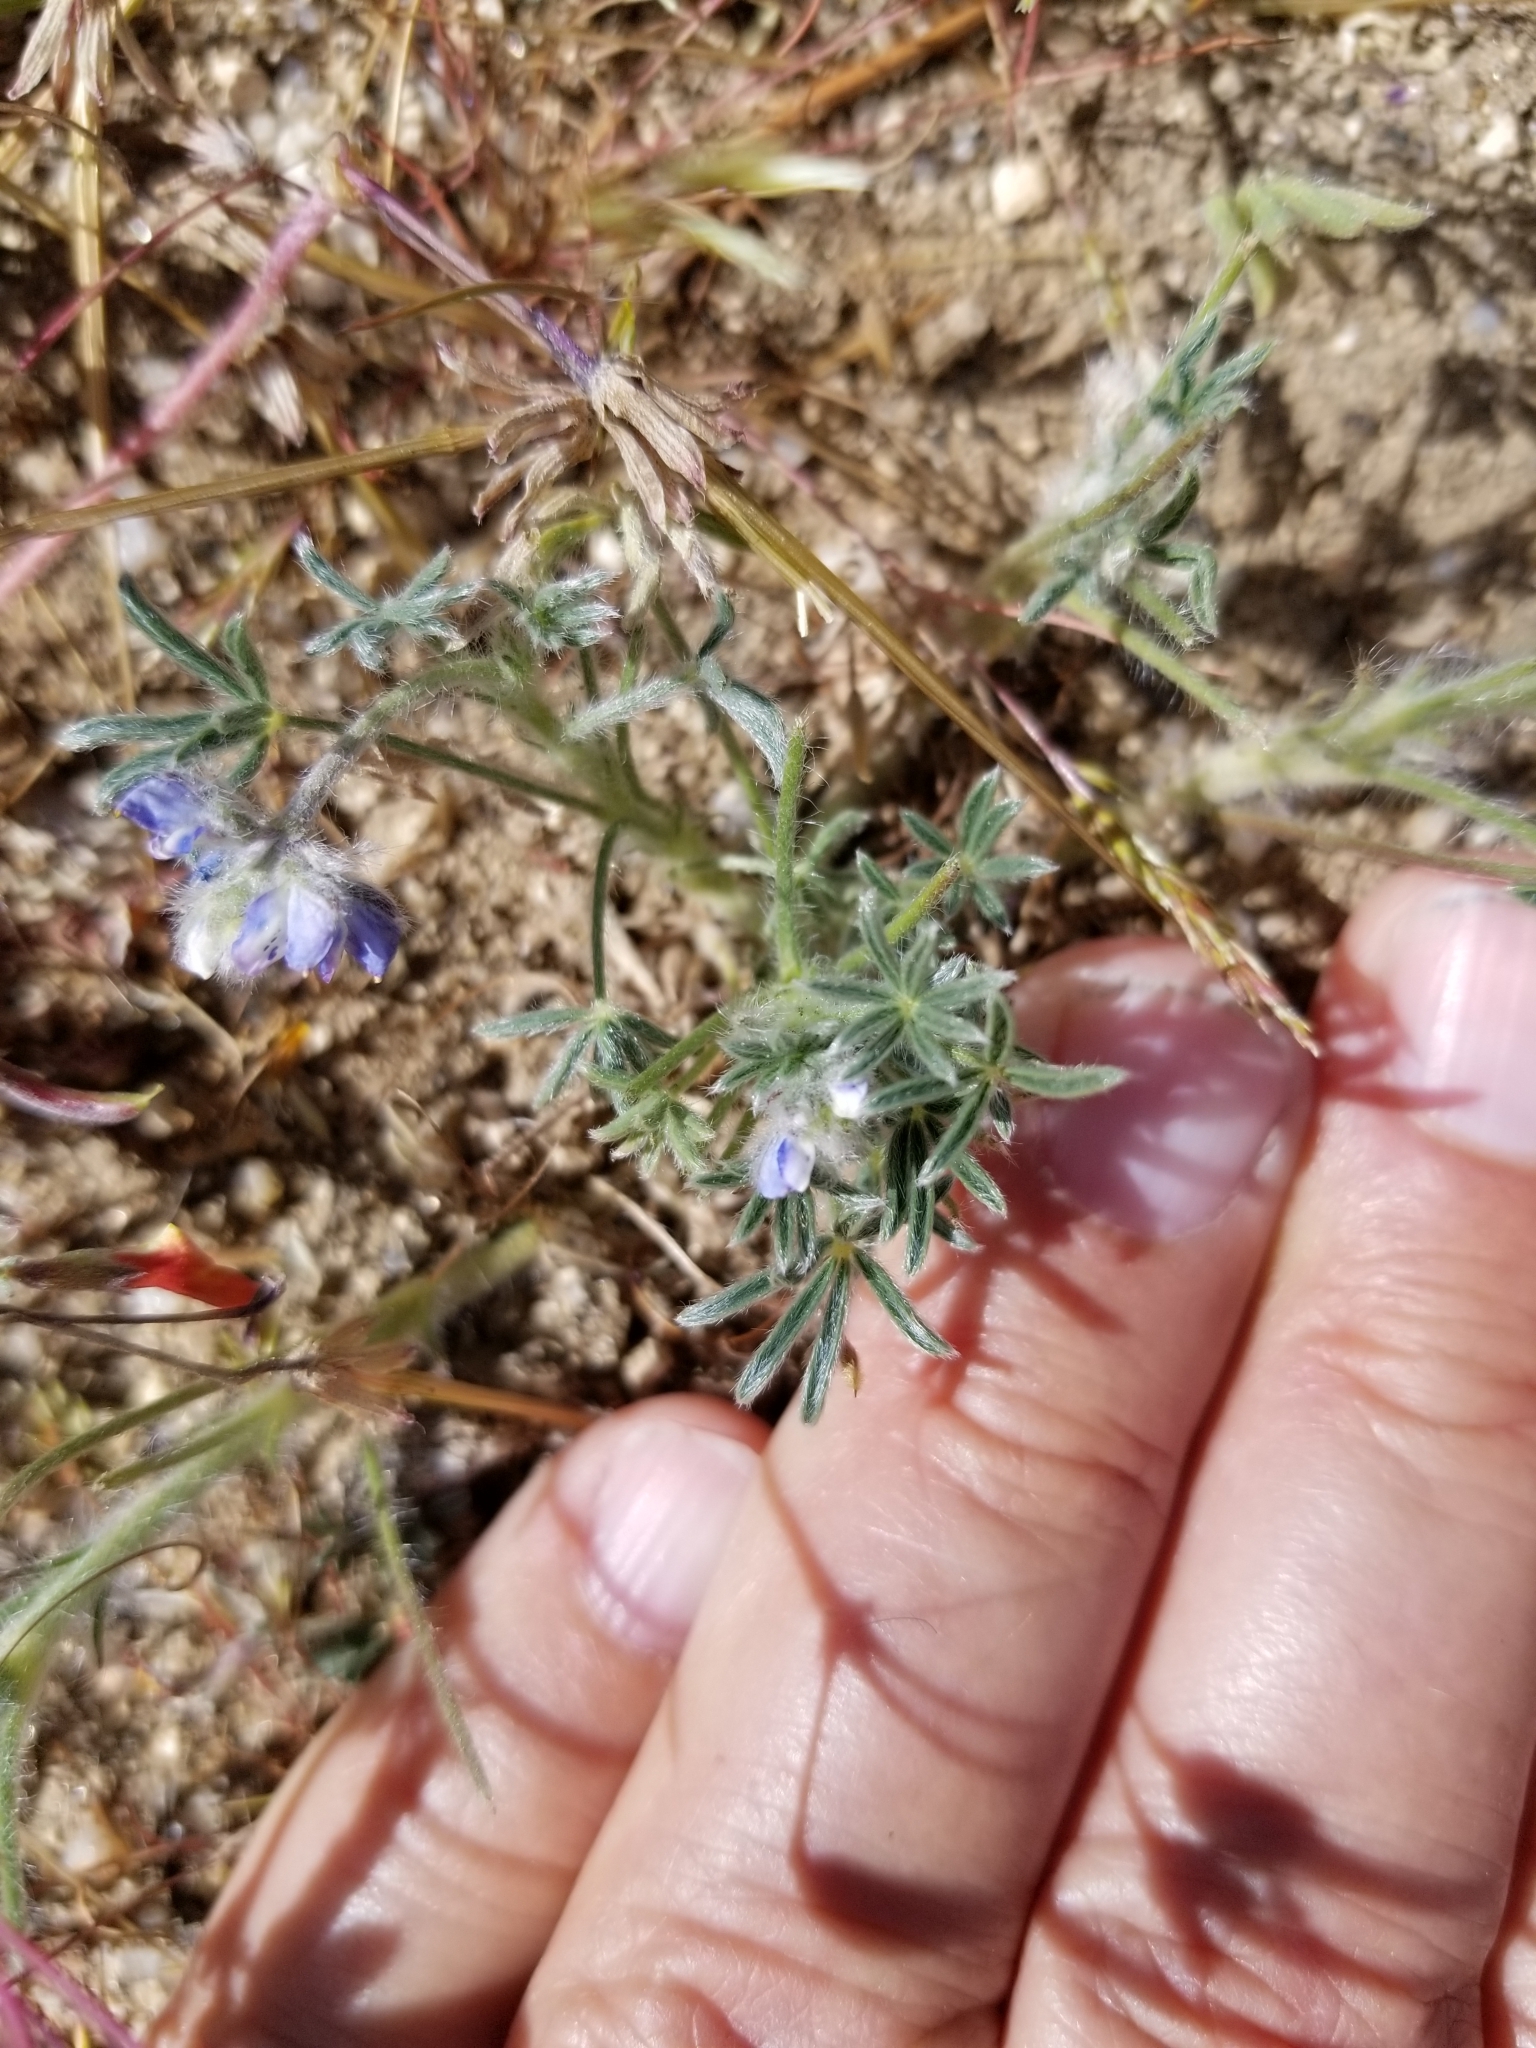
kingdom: Plantae
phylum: Tracheophyta
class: Magnoliopsida
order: Fabales
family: Fabaceae
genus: Lupinus
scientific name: Lupinus bicolor
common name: Miniature lupine
